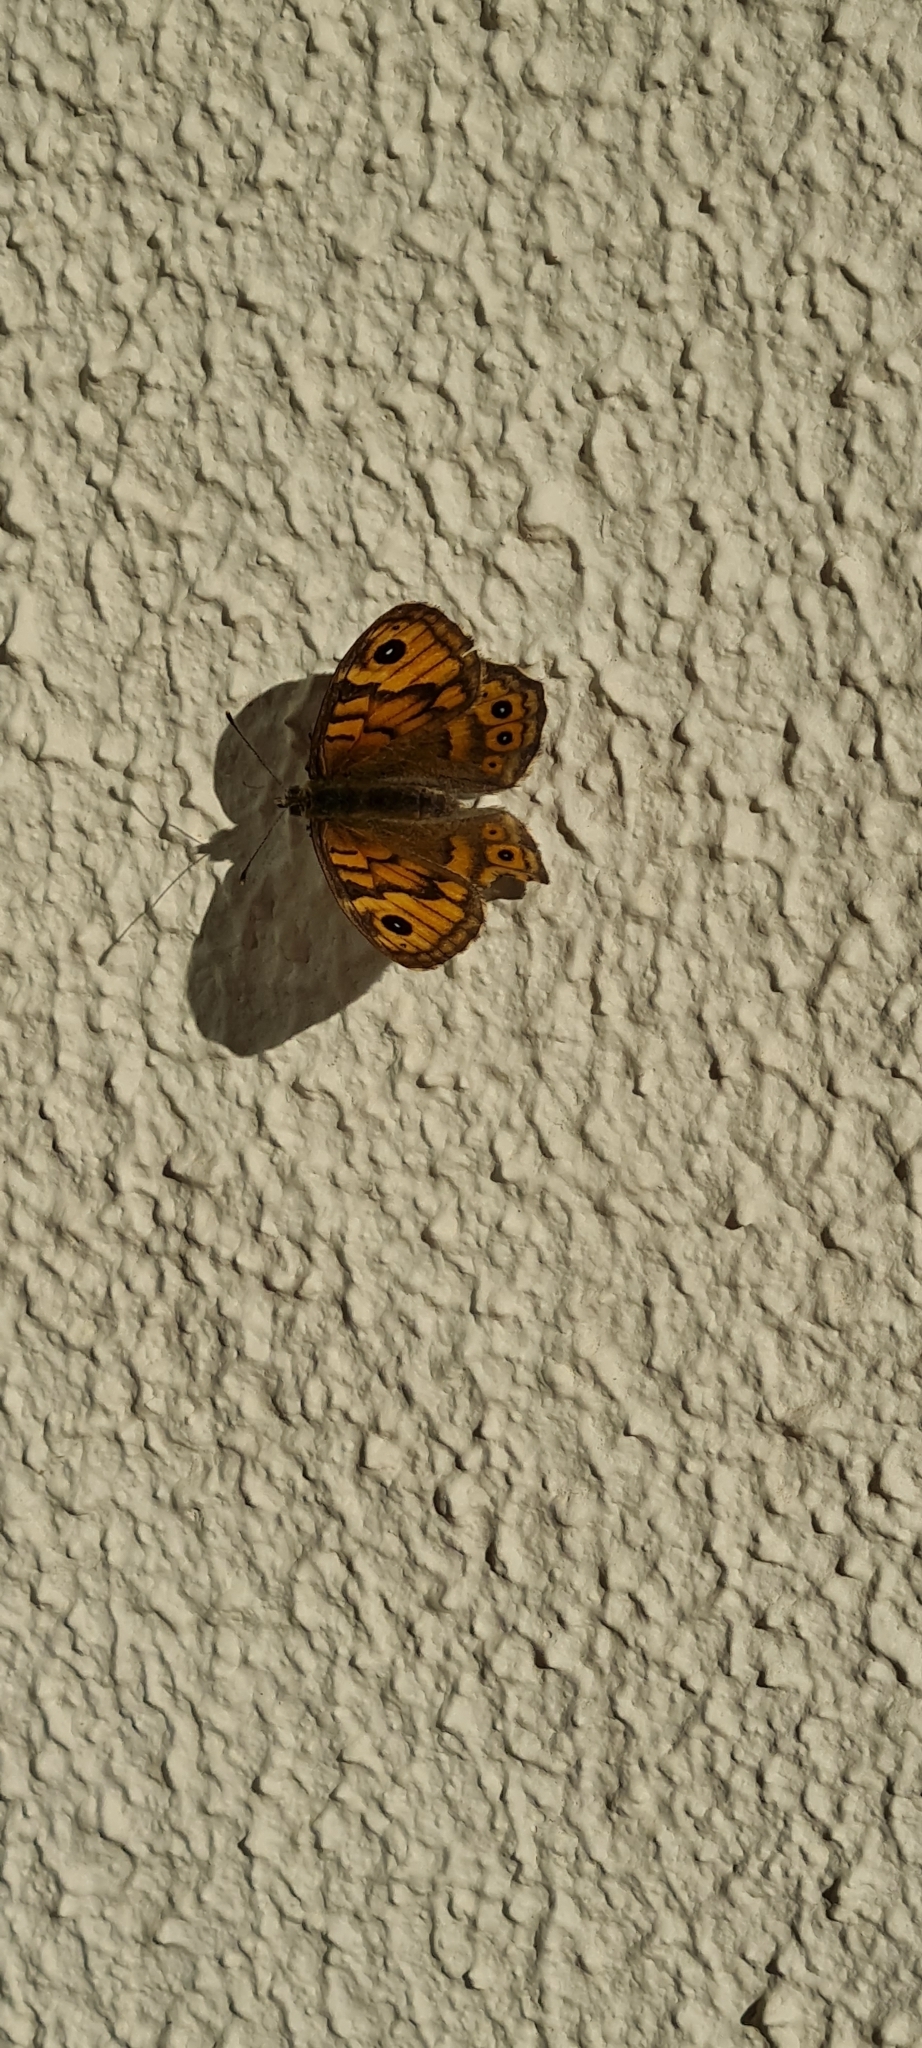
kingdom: Animalia
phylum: Arthropoda
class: Insecta
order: Lepidoptera
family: Nymphalidae
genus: Pararge
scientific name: Pararge Lasiommata megera
